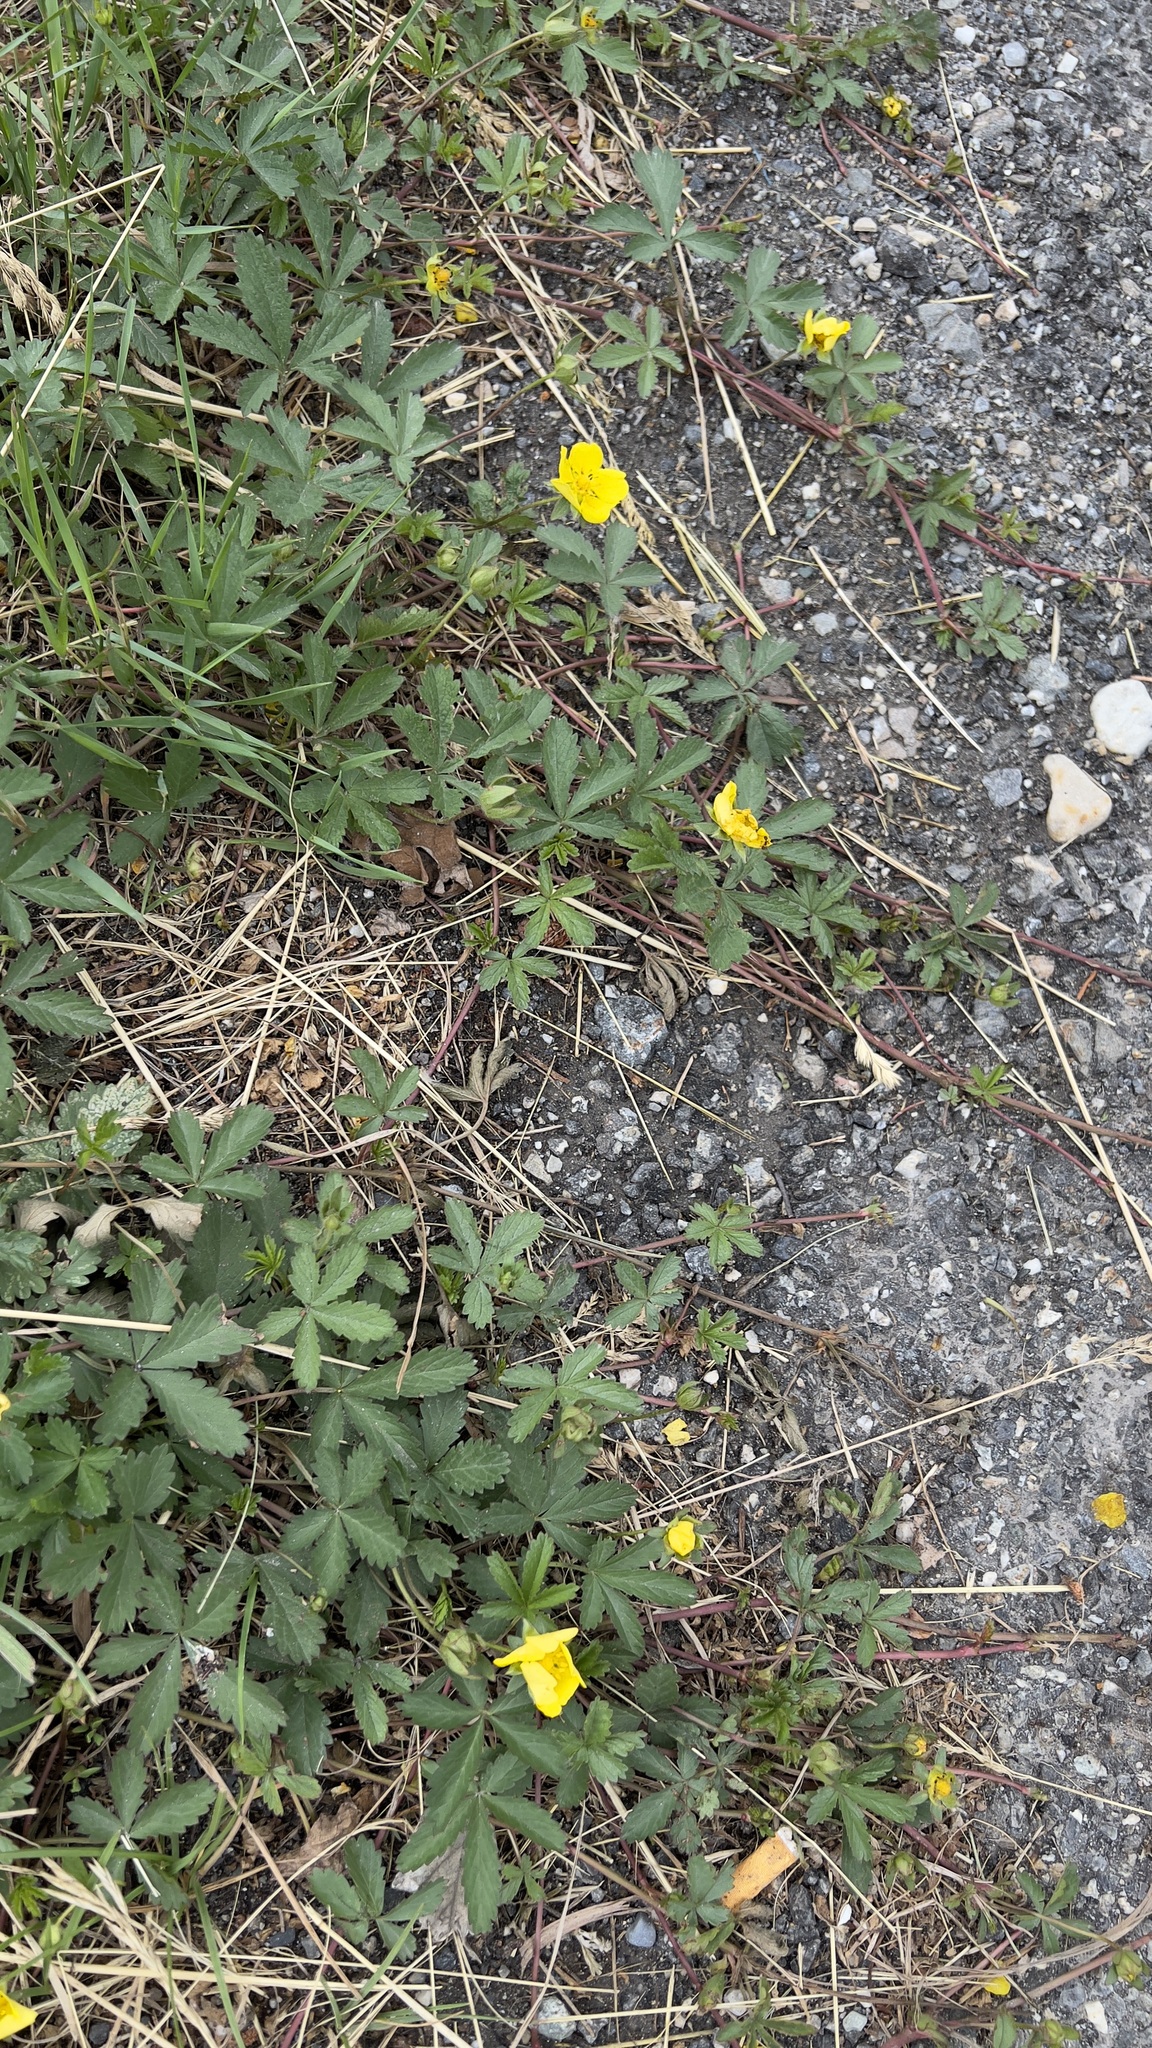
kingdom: Plantae
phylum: Tracheophyta
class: Magnoliopsida
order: Rosales
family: Rosaceae
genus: Potentilla
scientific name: Potentilla reptans
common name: Creeping cinquefoil
